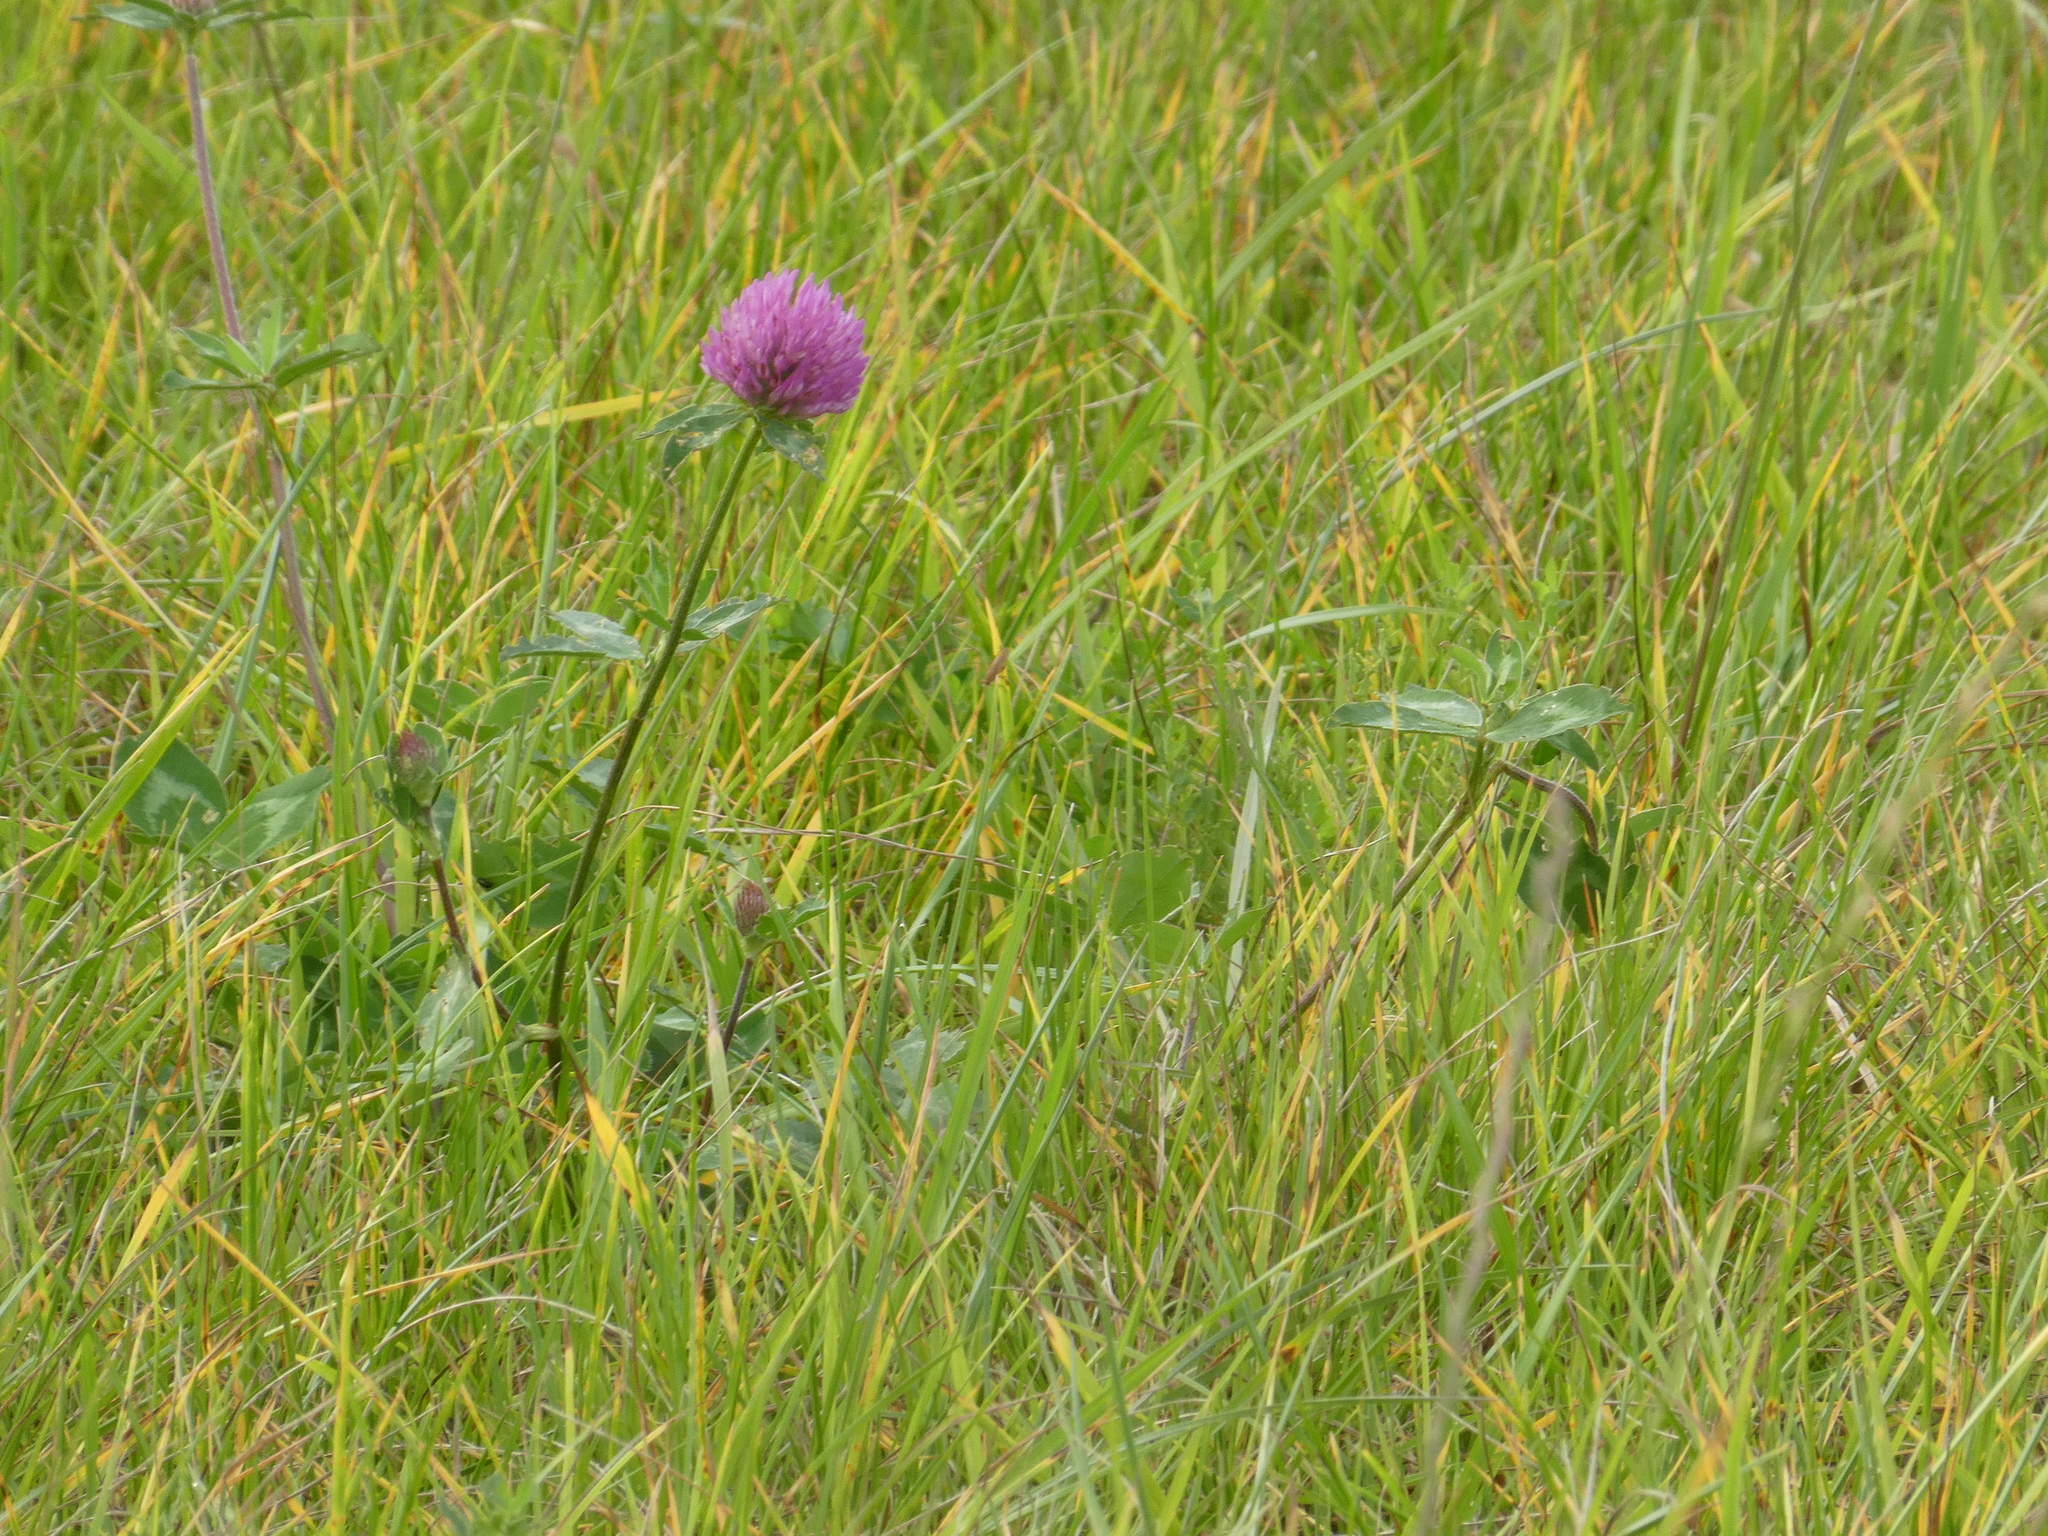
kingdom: Plantae
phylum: Tracheophyta
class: Magnoliopsida
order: Fabales
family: Fabaceae
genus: Trifolium
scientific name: Trifolium pratense
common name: Red clover
